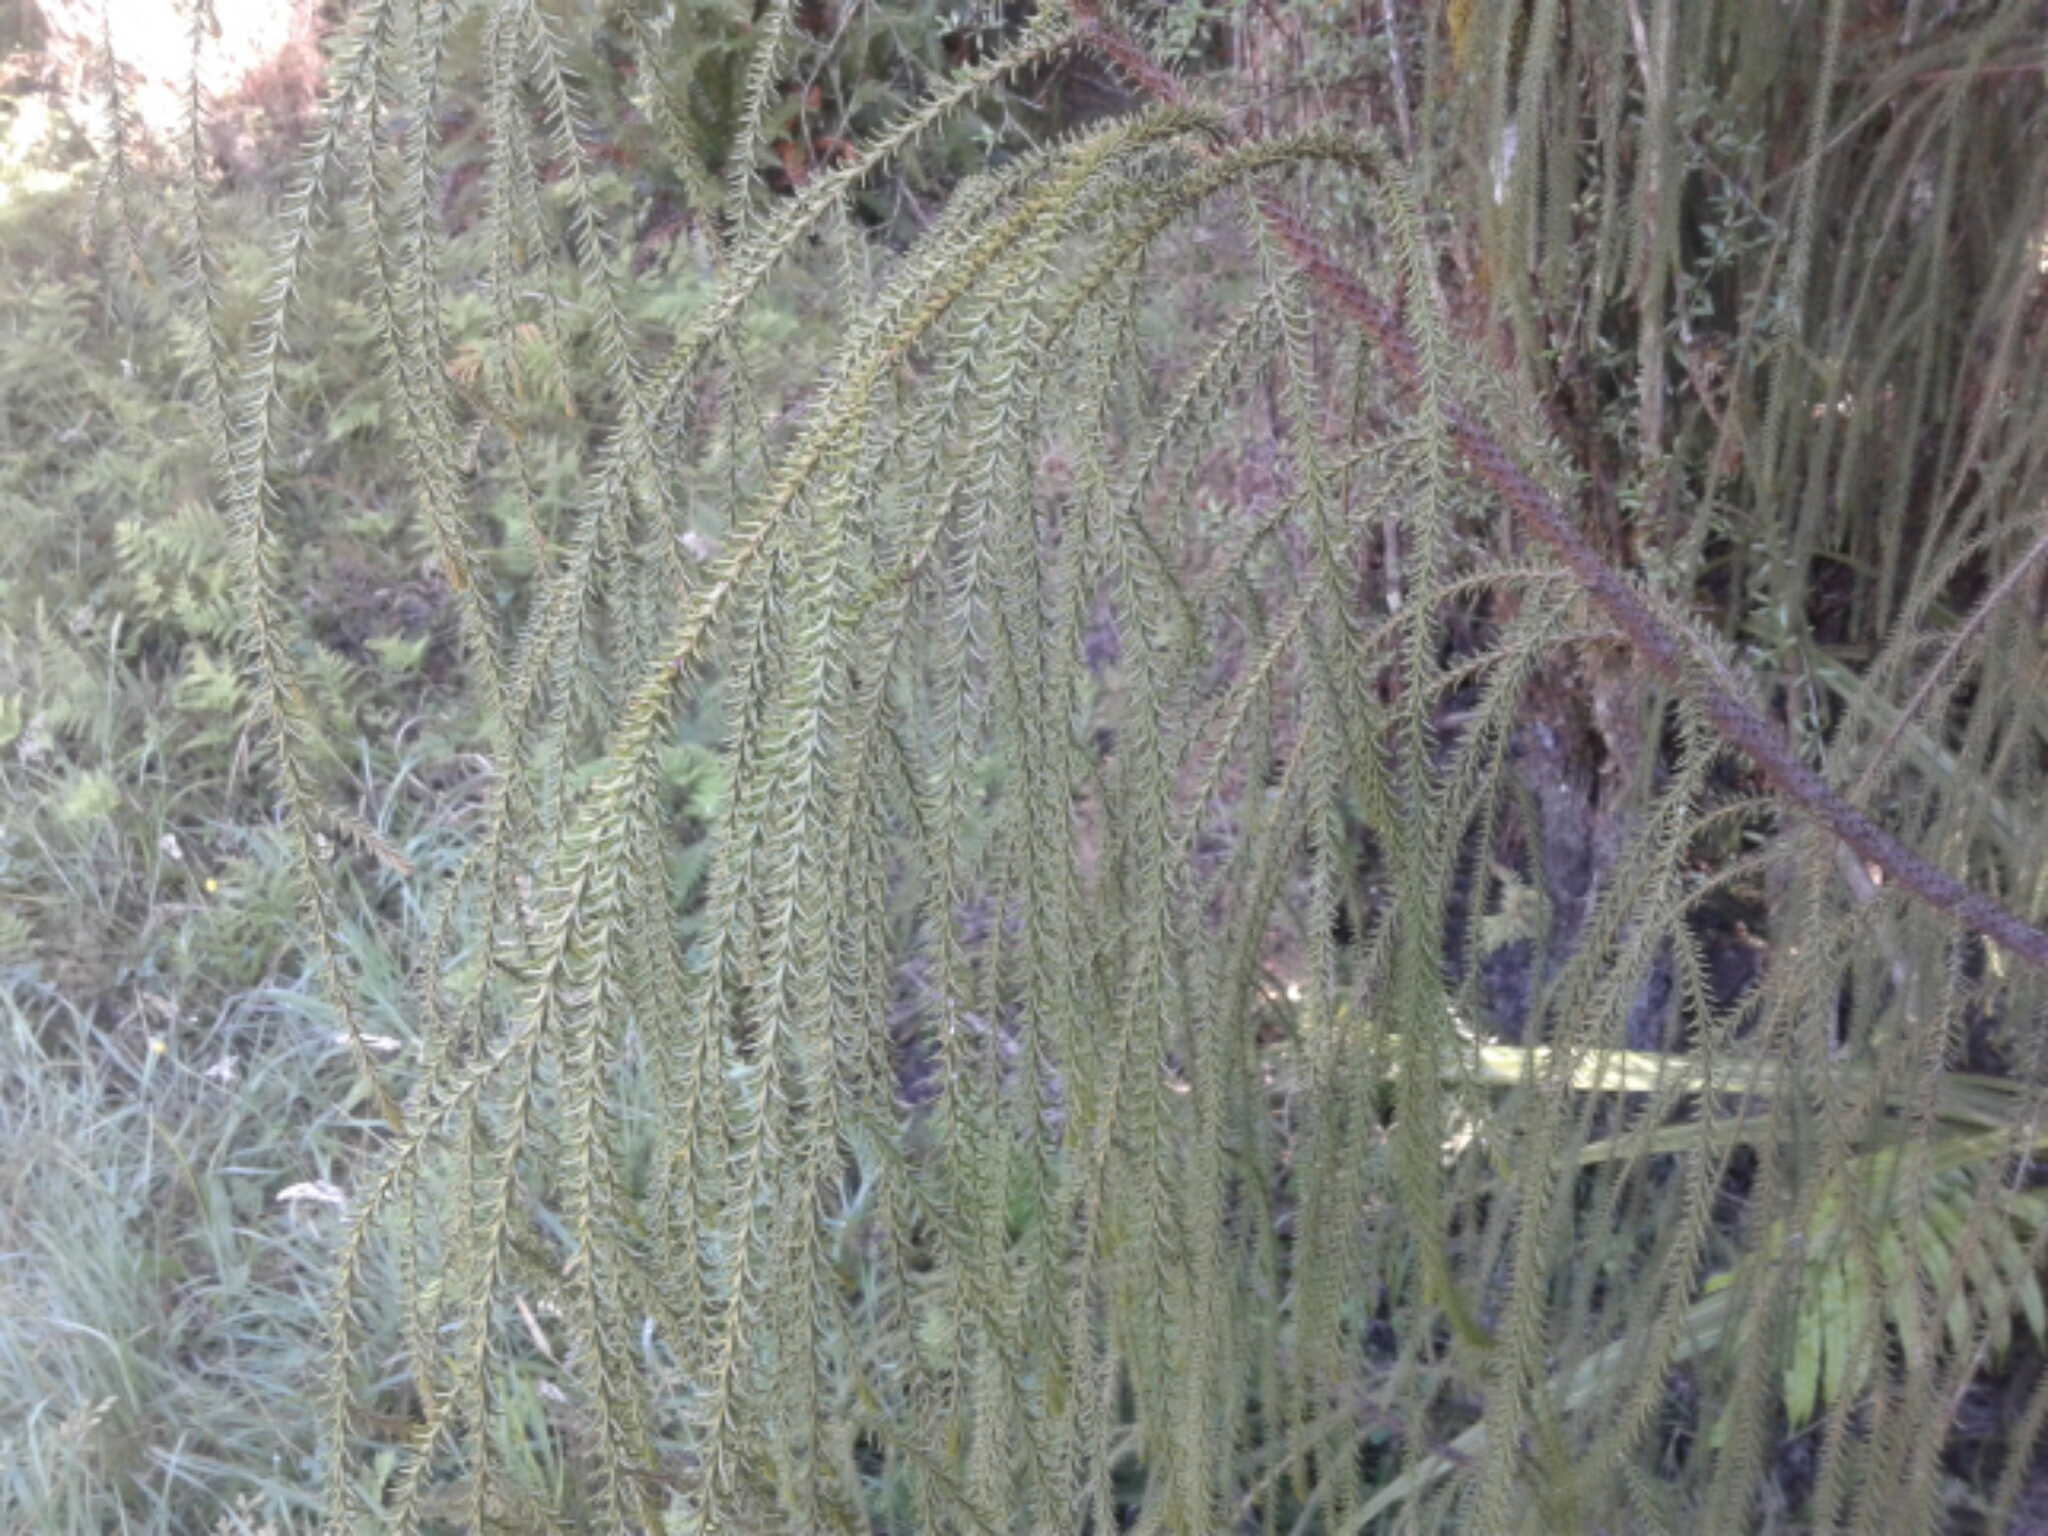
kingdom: Plantae
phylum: Tracheophyta
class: Pinopsida
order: Pinales
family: Podocarpaceae
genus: Dacrydium
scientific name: Dacrydium cupressinum
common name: Red pine
